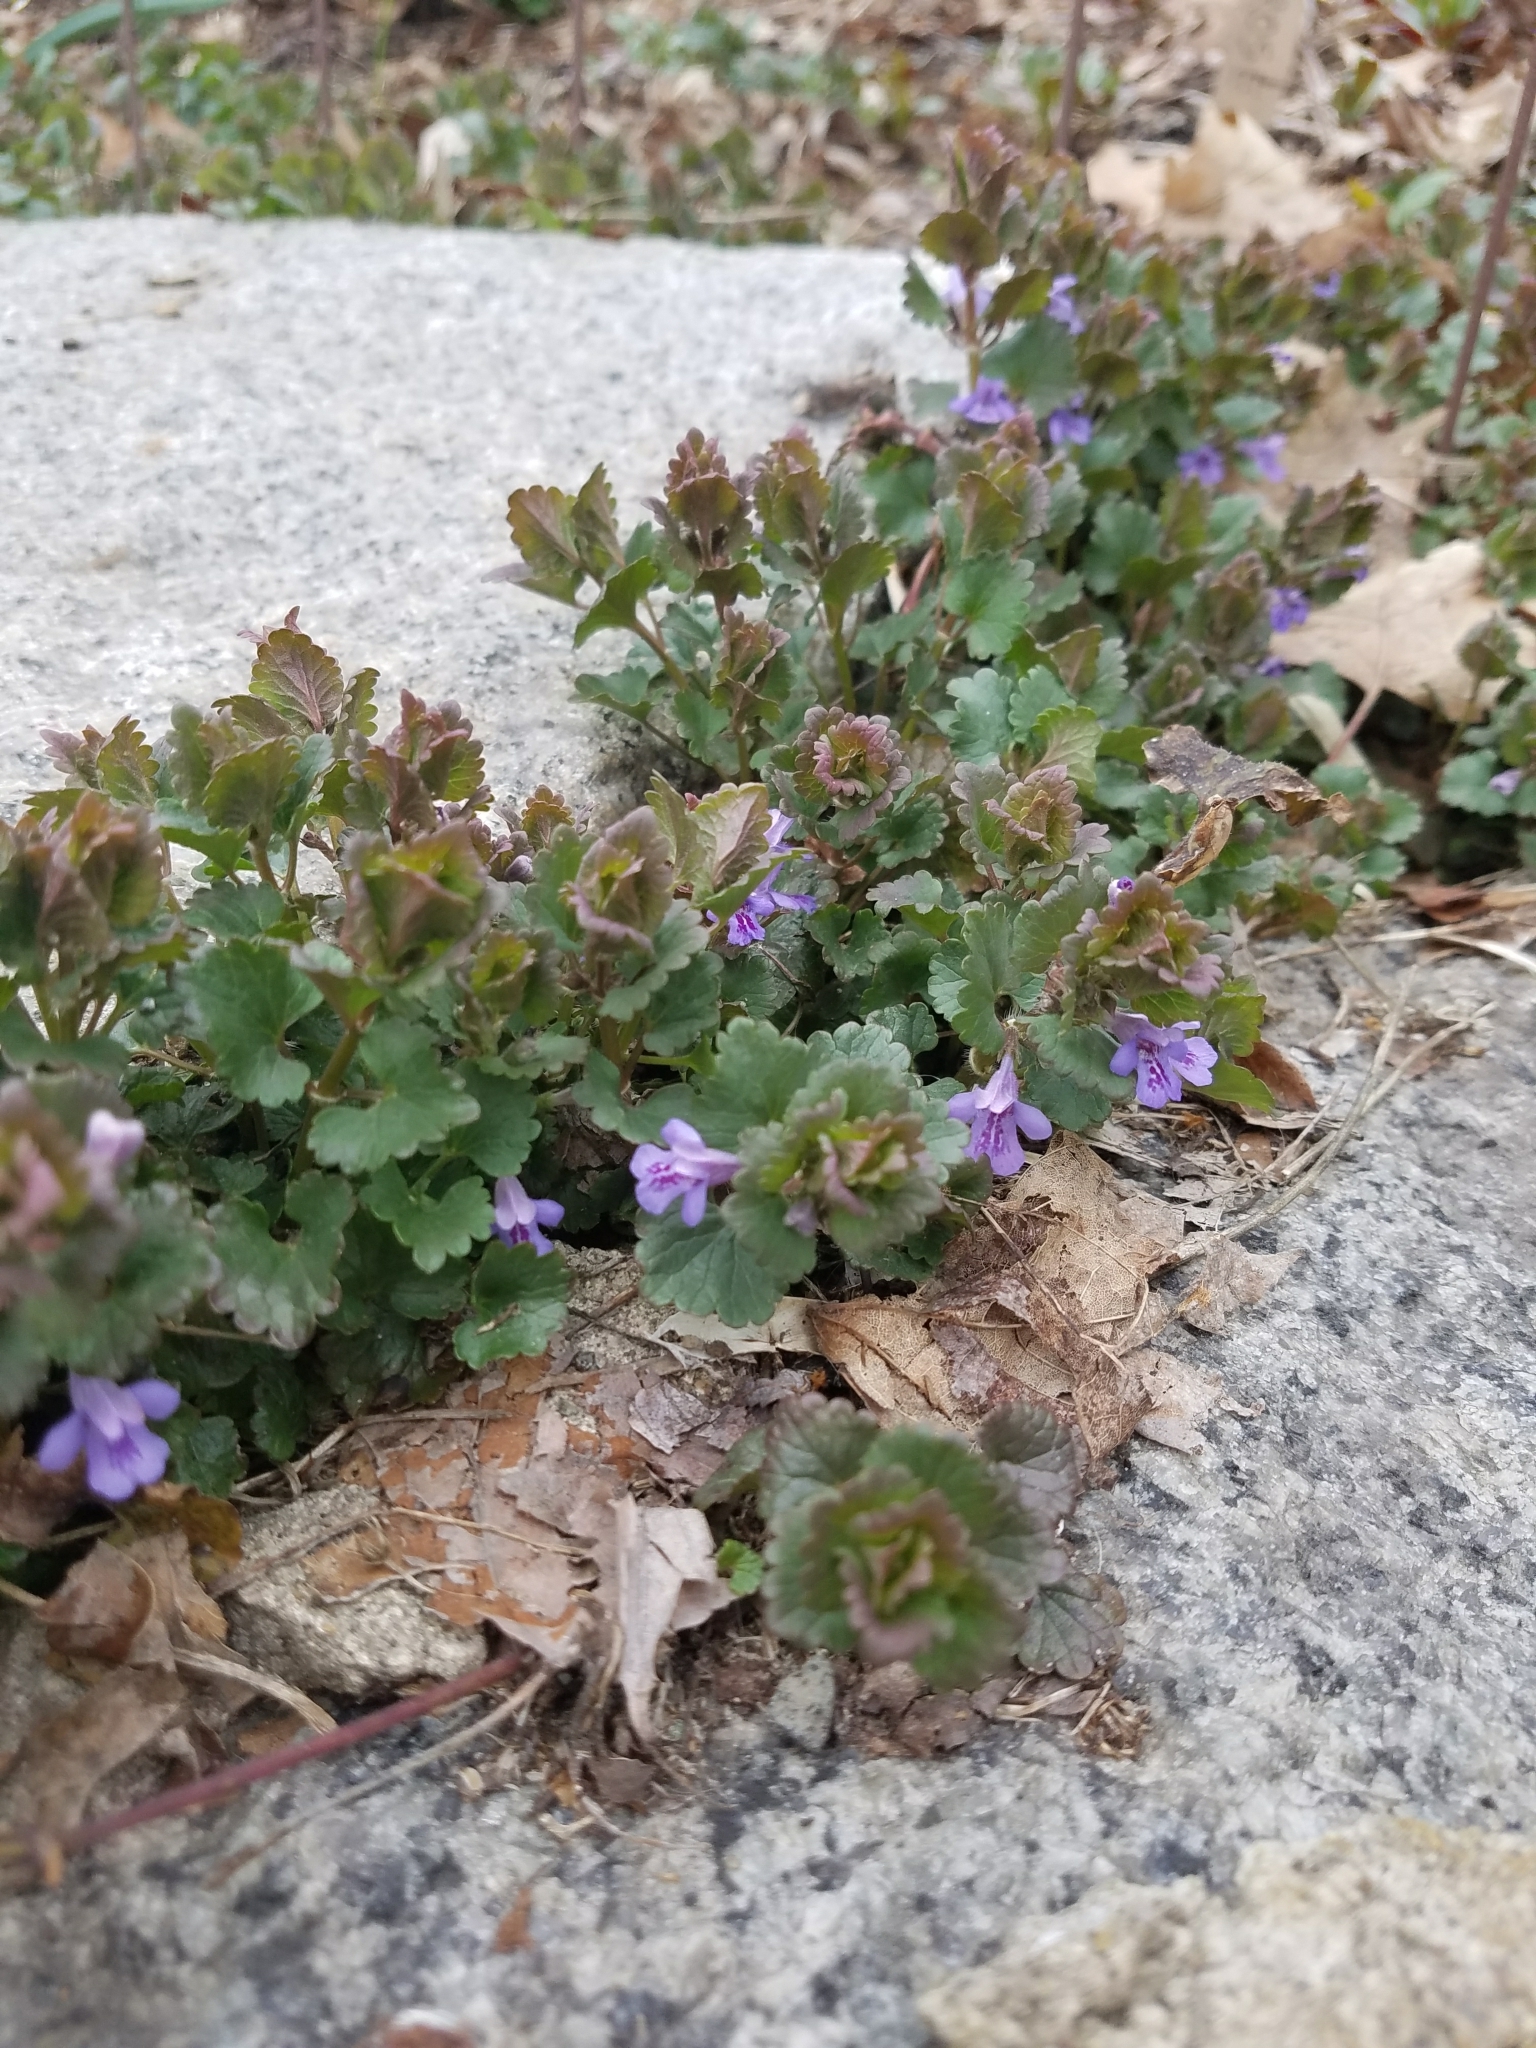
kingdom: Plantae
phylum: Tracheophyta
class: Magnoliopsida
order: Lamiales
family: Lamiaceae
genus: Glechoma
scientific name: Glechoma hederacea
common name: Ground ivy
